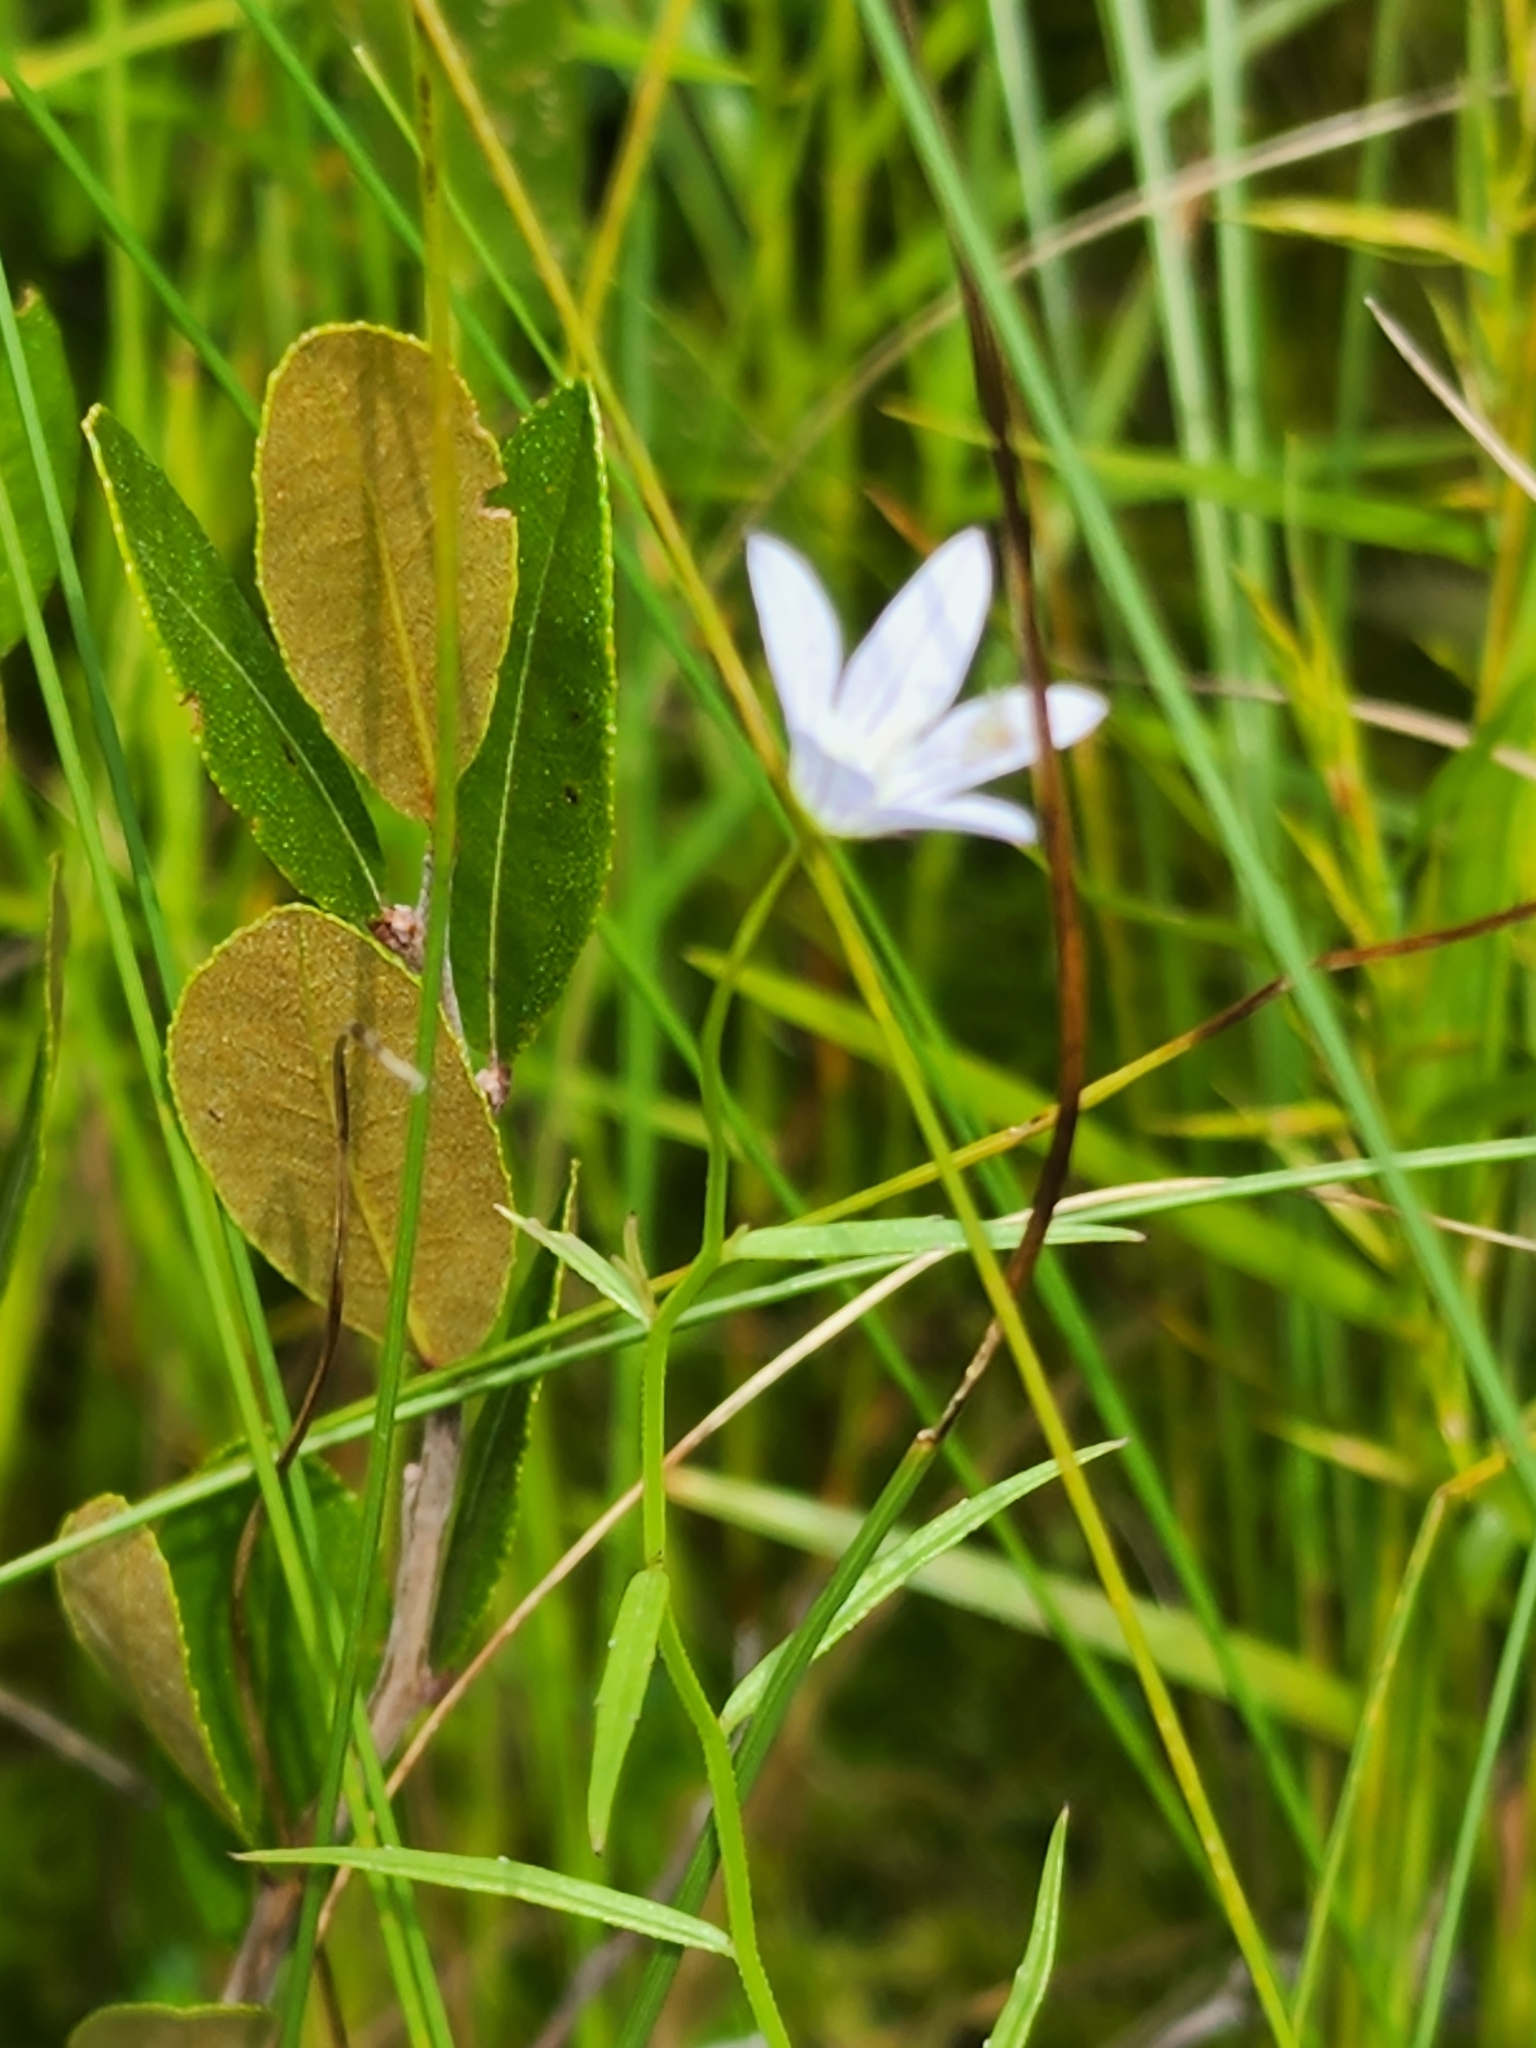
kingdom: Plantae
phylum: Tracheophyta
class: Magnoliopsida
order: Asterales
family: Campanulaceae
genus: Palustricodon
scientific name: Palustricodon aparinoides
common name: Bedstraw bellflower
